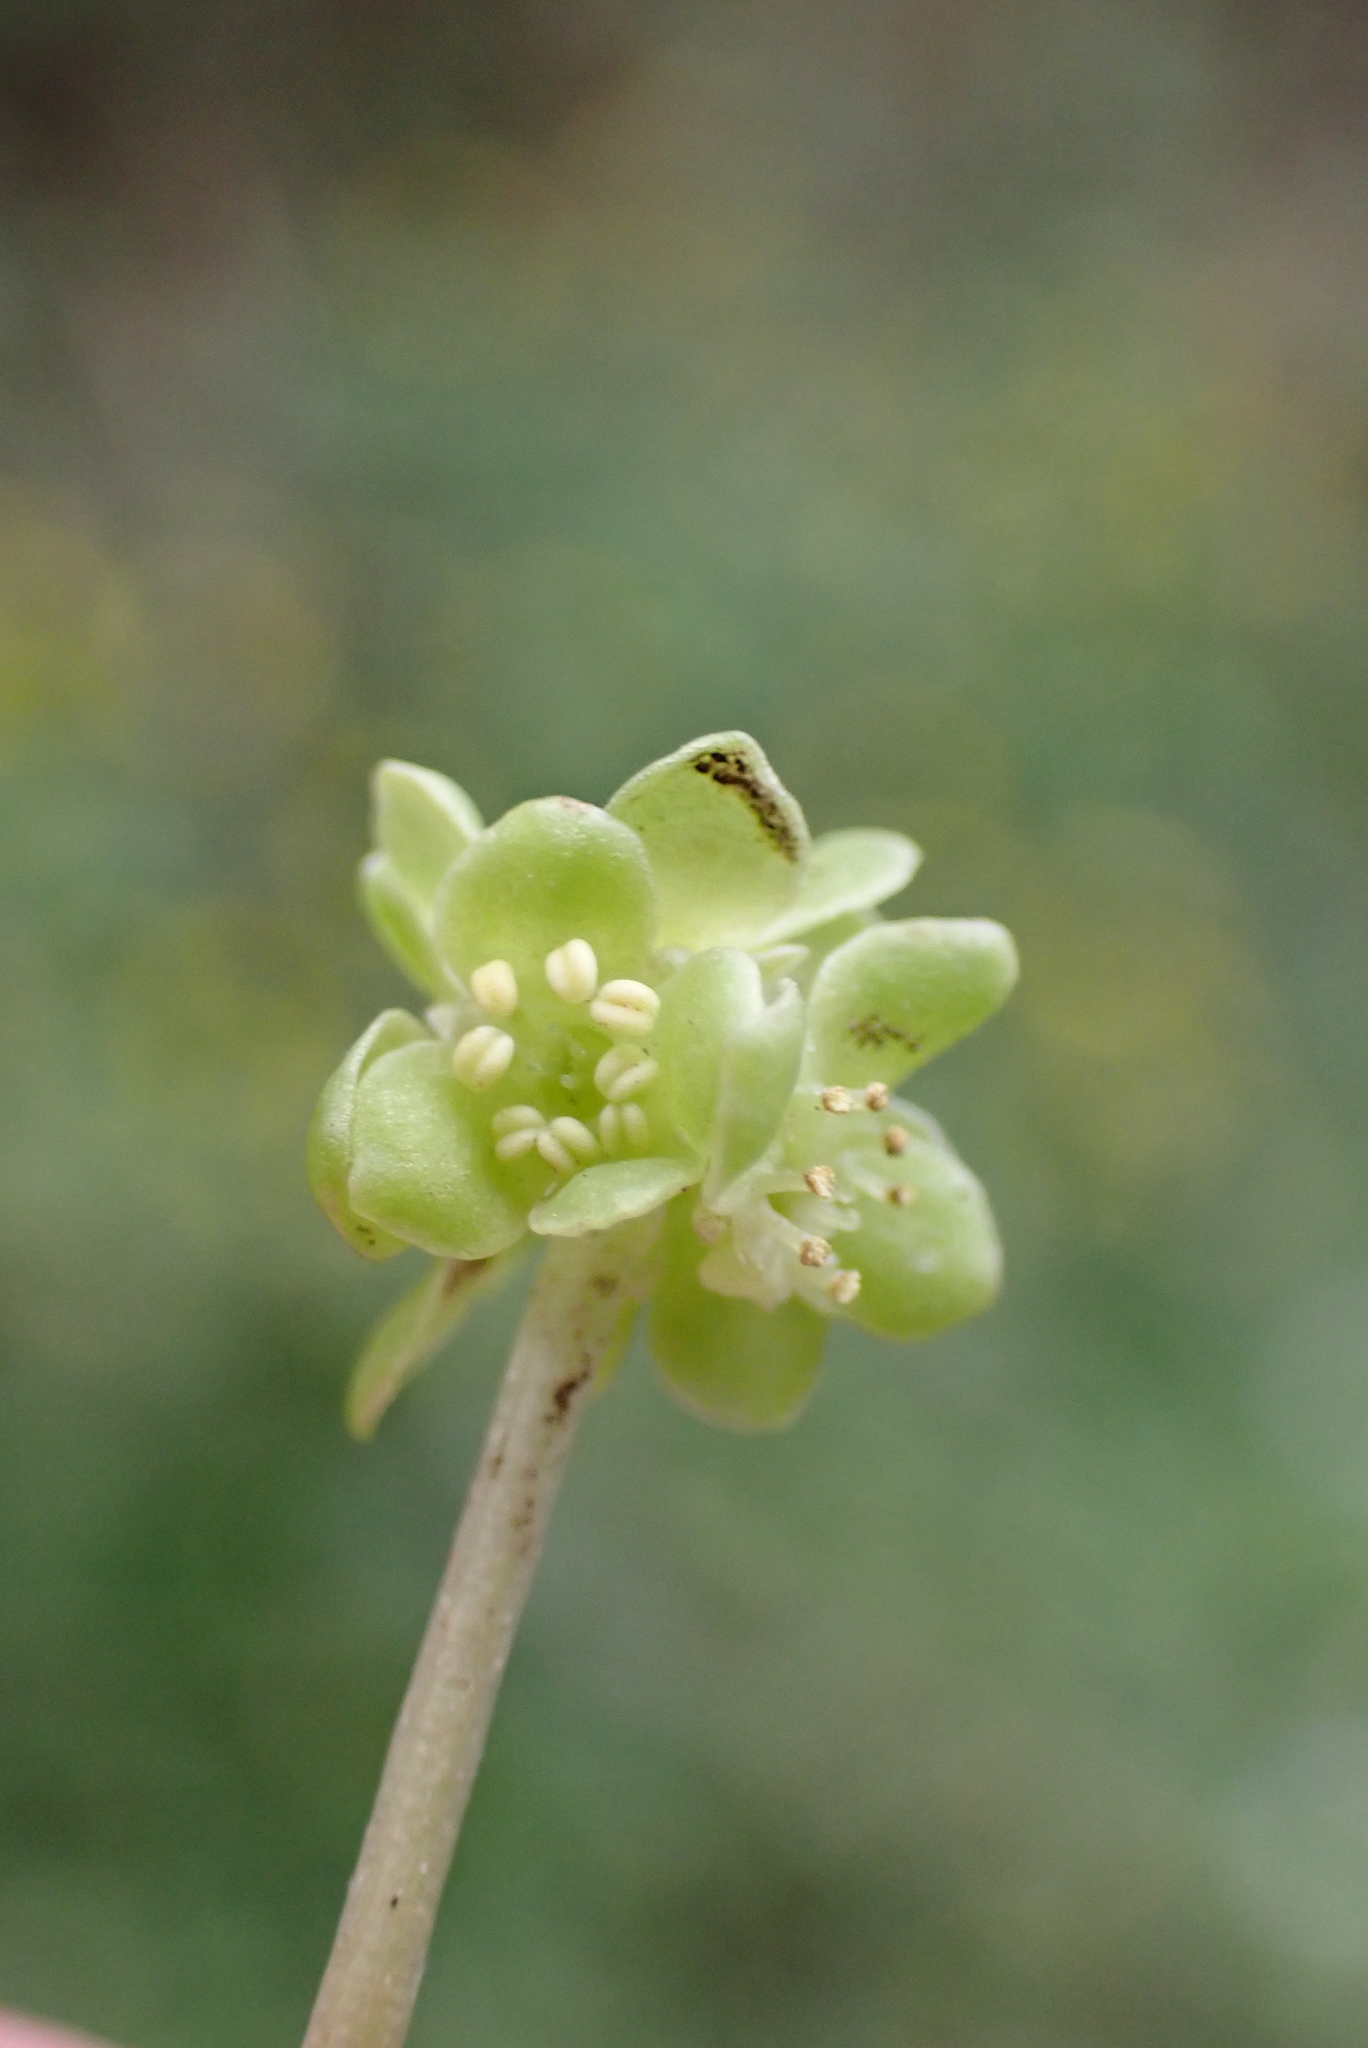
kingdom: Plantae
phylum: Tracheophyta
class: Magnoliopsida
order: Dipsacales
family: Viburnaceae
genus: Adoxa
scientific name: Adoxa moschatellina
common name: Moschatel
